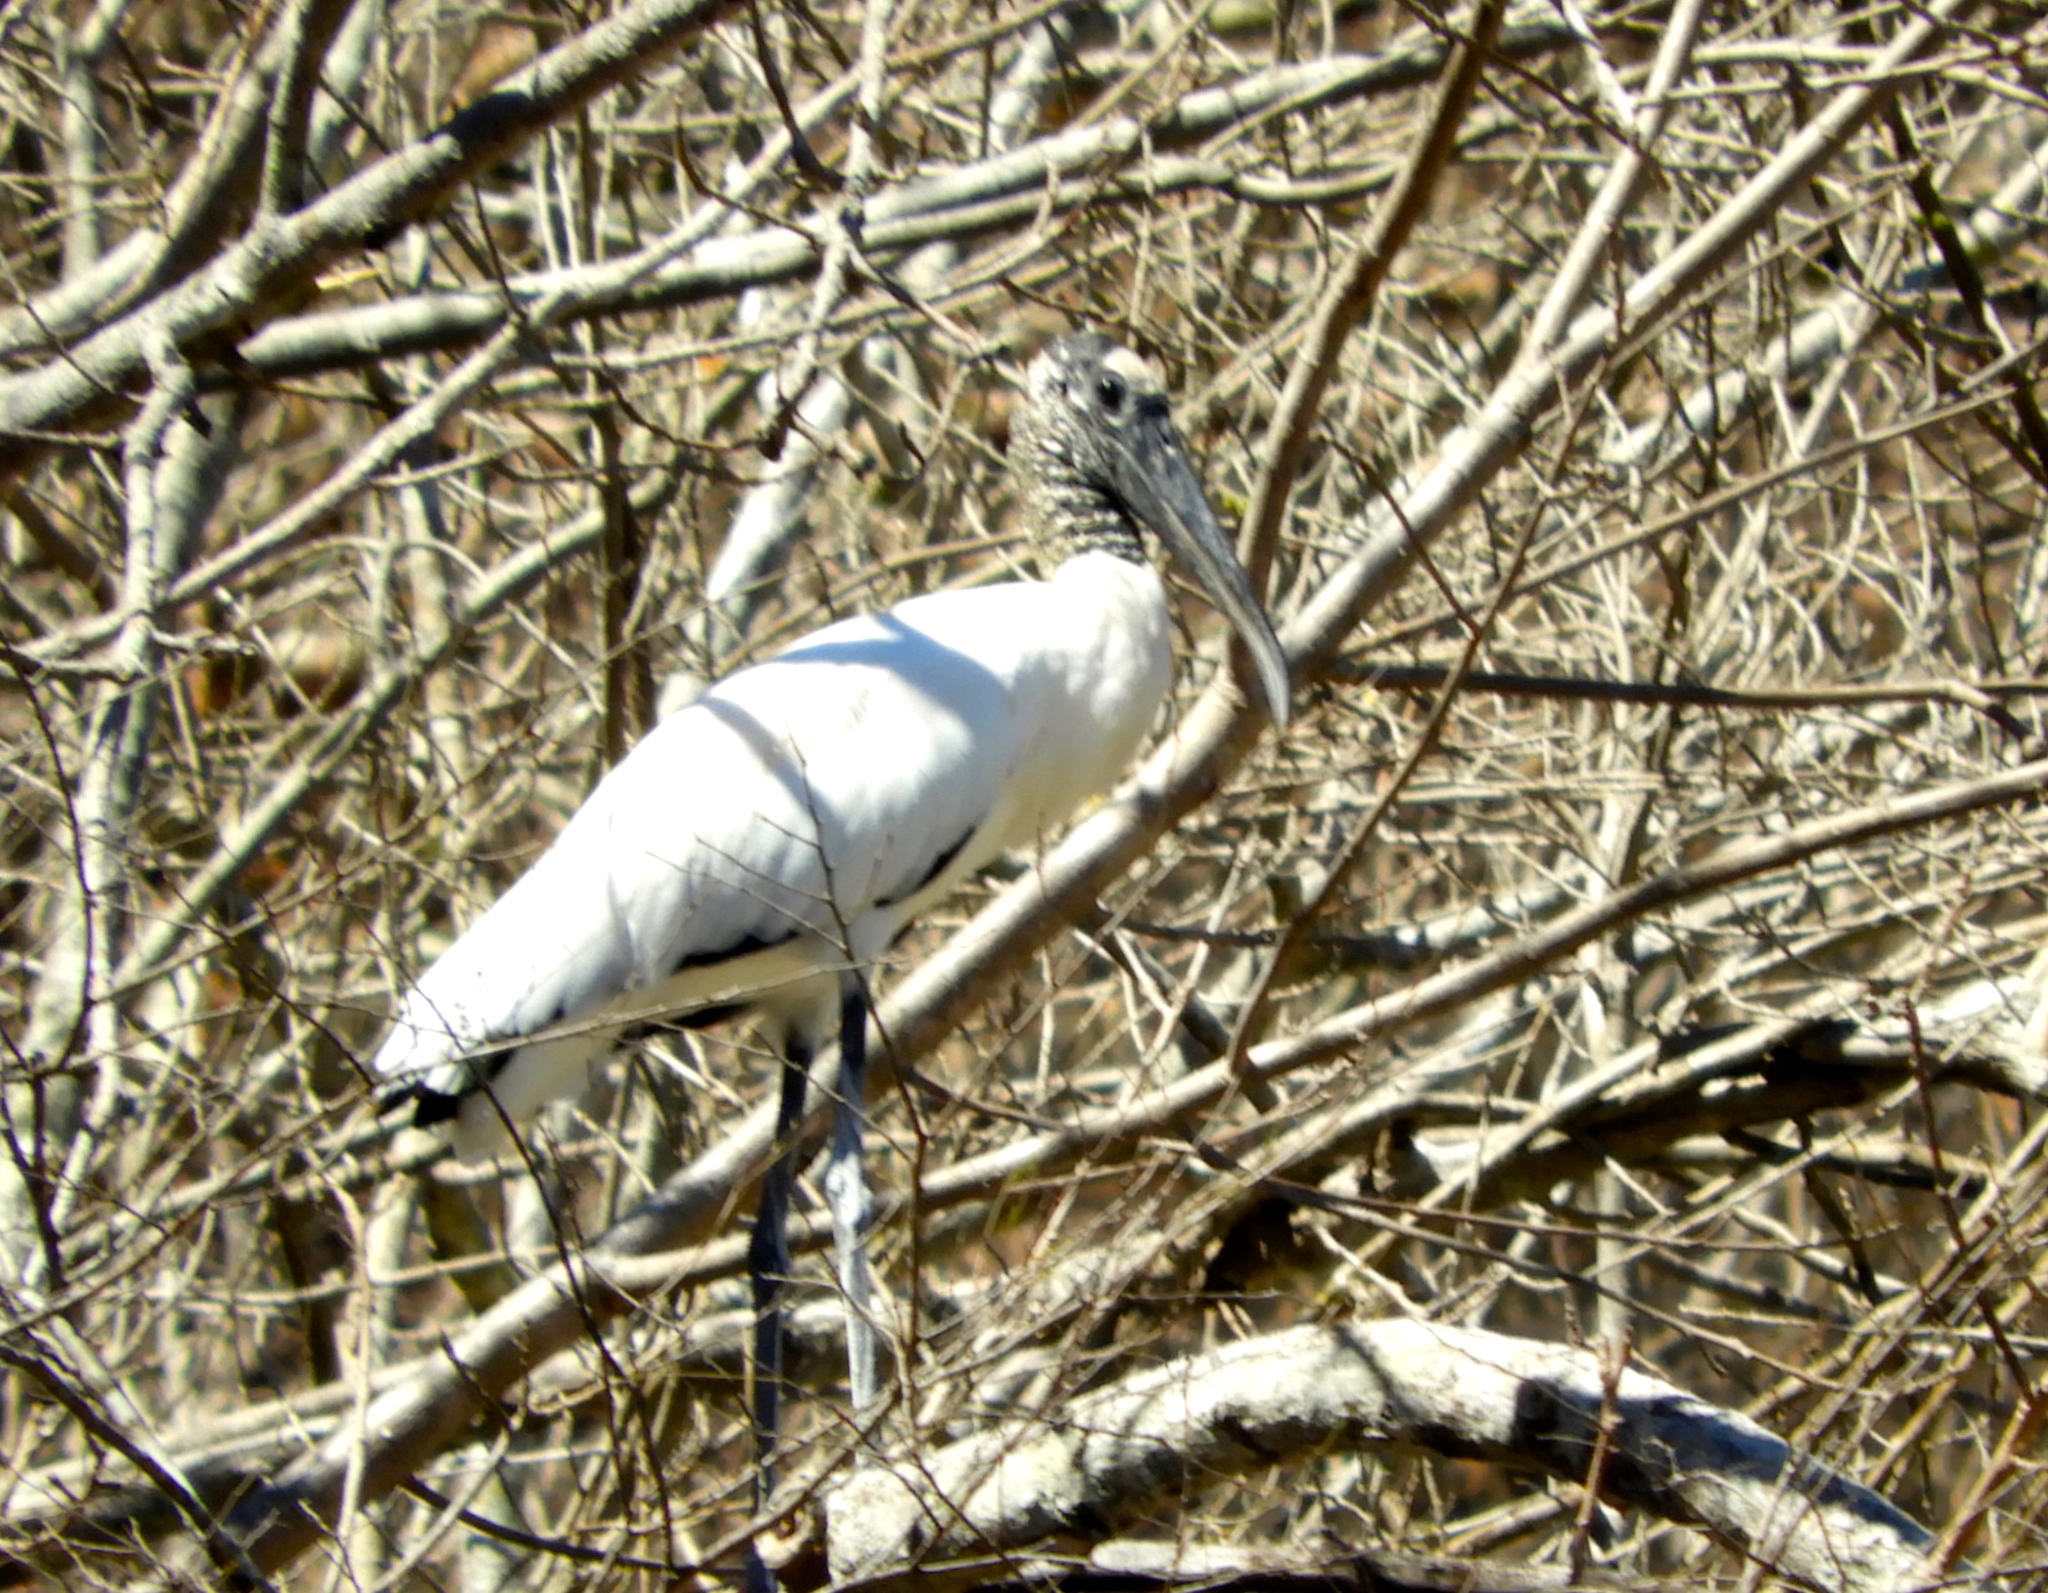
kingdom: Animalia
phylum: Chordata
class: Aves
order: Ciconiiformes
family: Ciconiidae
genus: Mycteria
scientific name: Mycteria americana
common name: Wood stork
